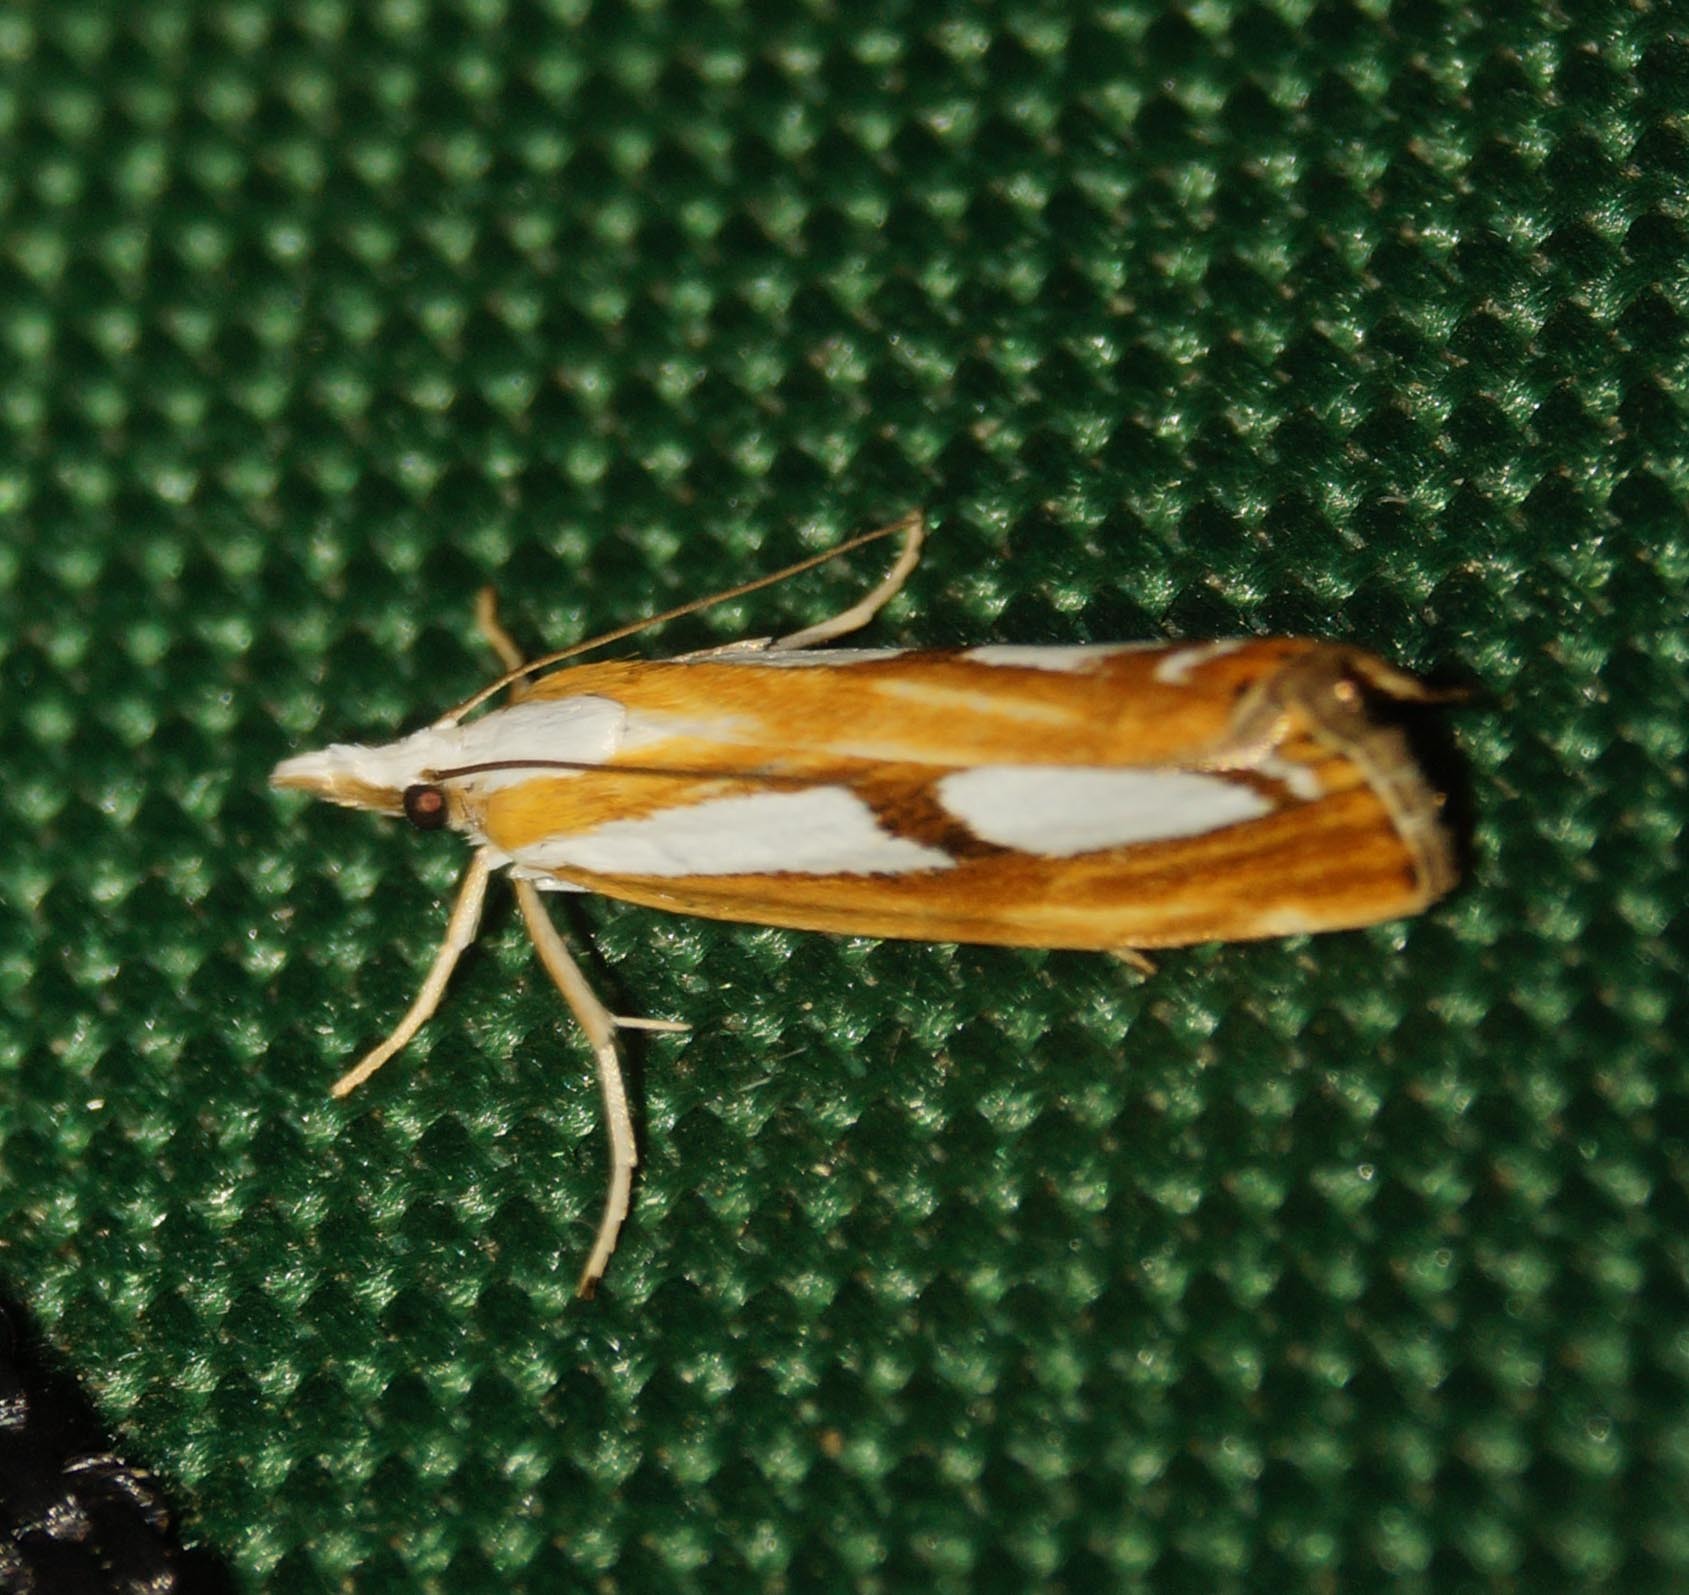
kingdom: Animalia
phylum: Arthropoda
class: Insecta
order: Lepidoptera
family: Crambidae
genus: Catoptria
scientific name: Catoptria
